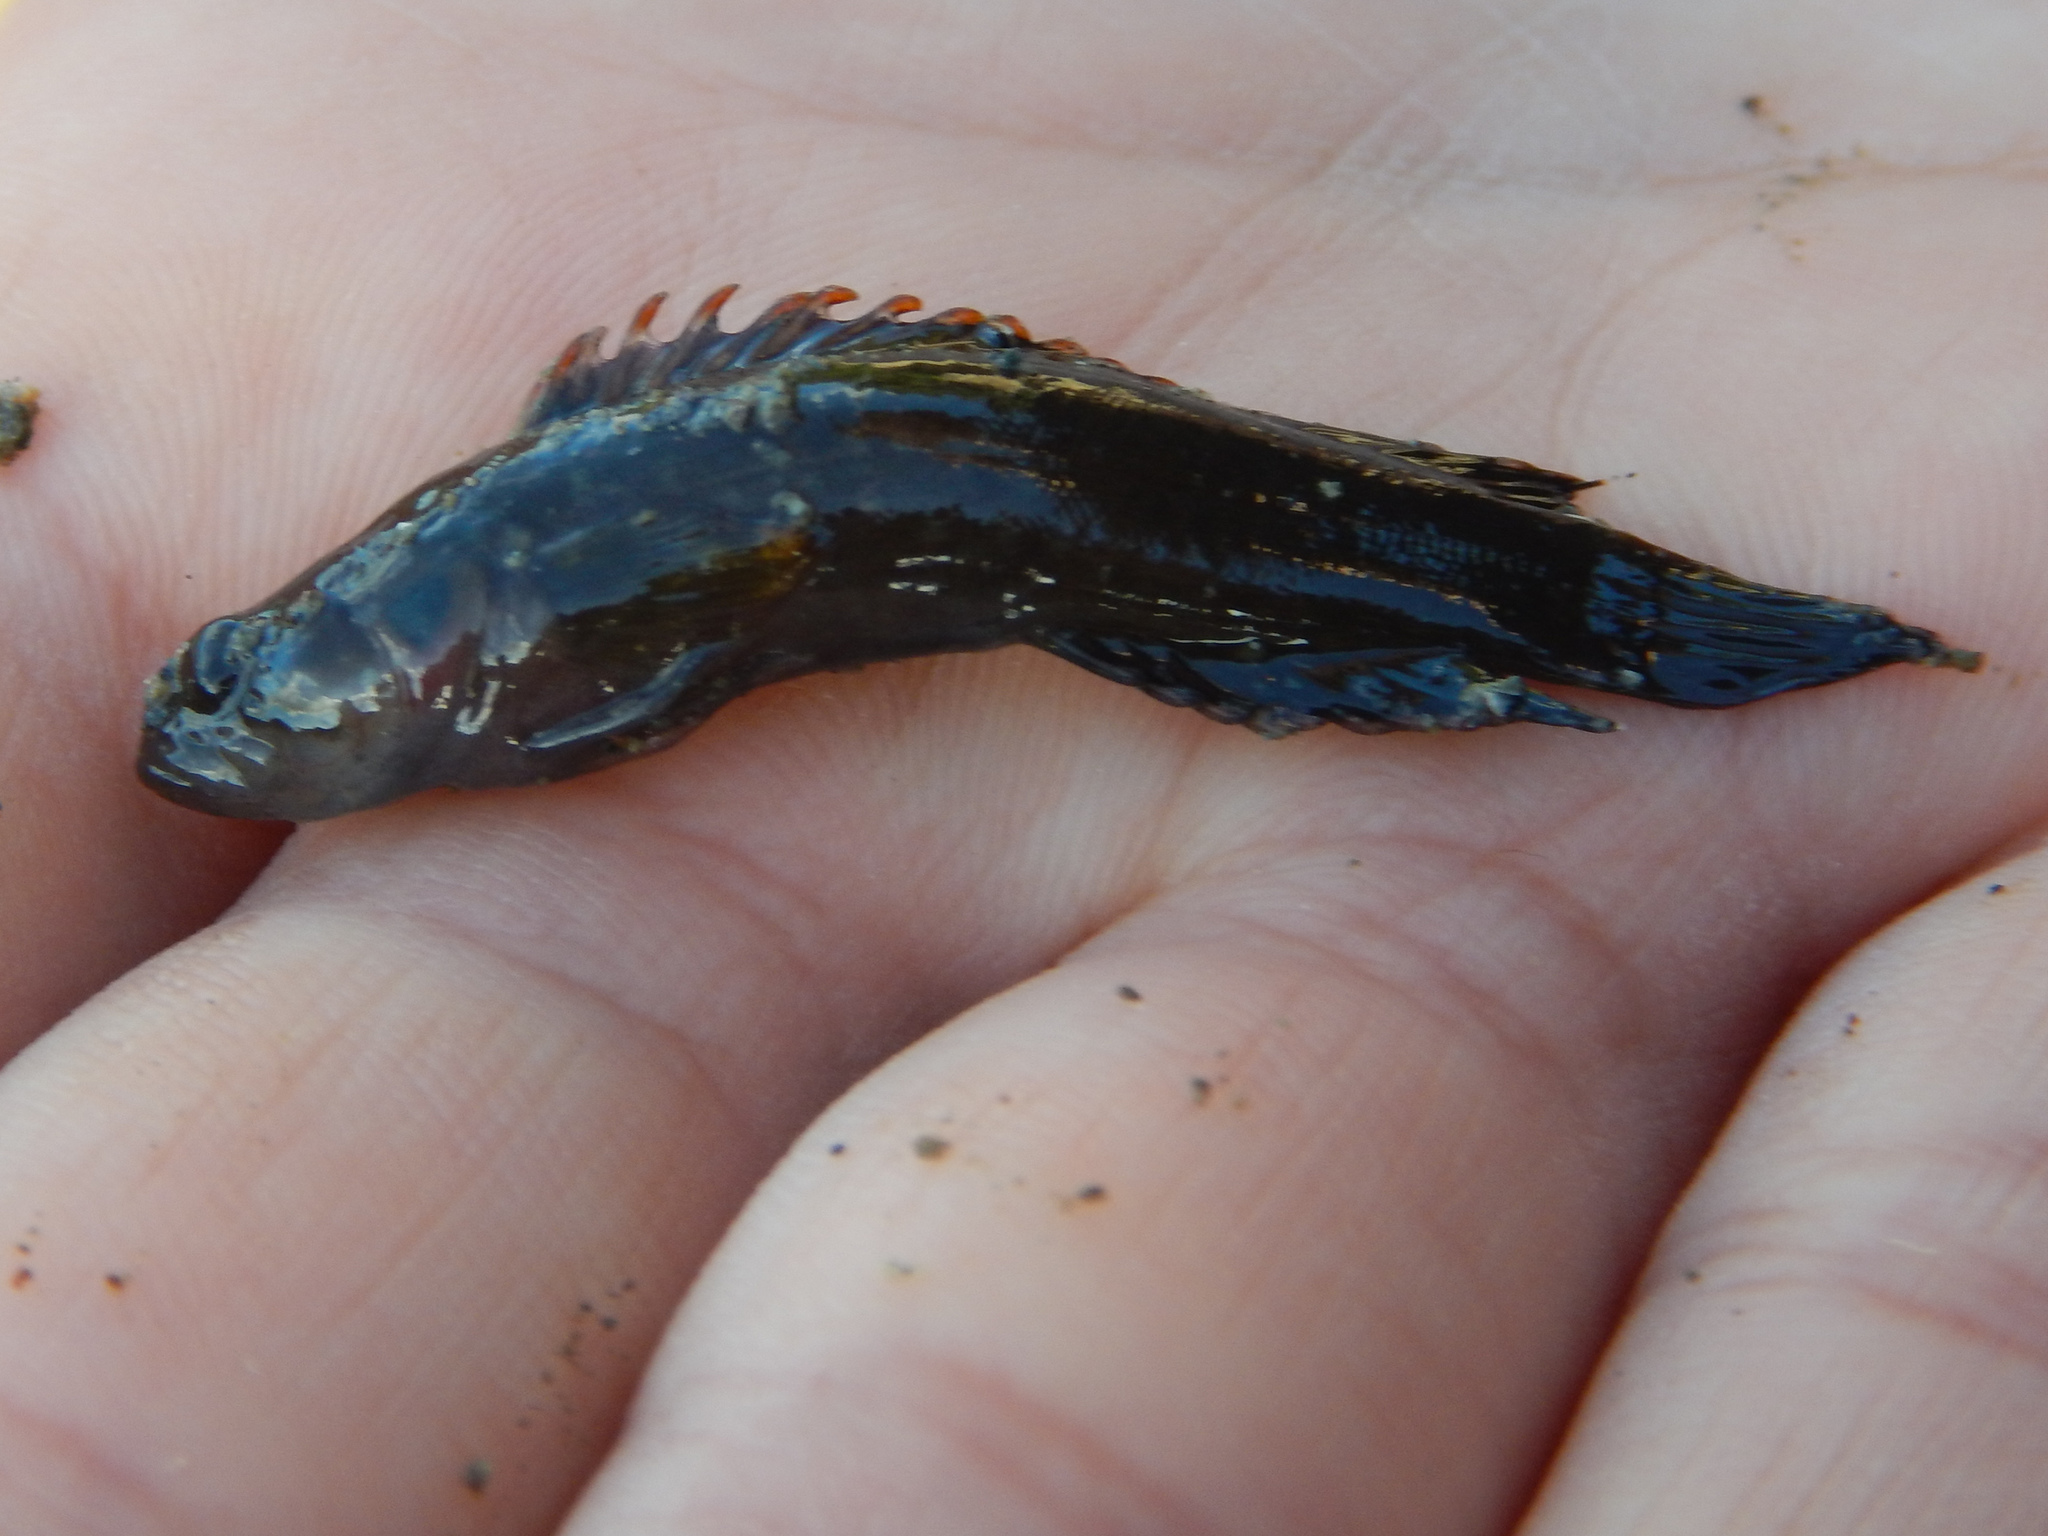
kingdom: Animalia
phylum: Chordata
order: Perciformes
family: Plesiopidae
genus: Acanthoclinus
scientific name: Acanthoclinus fuscus
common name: Olive rockfish
